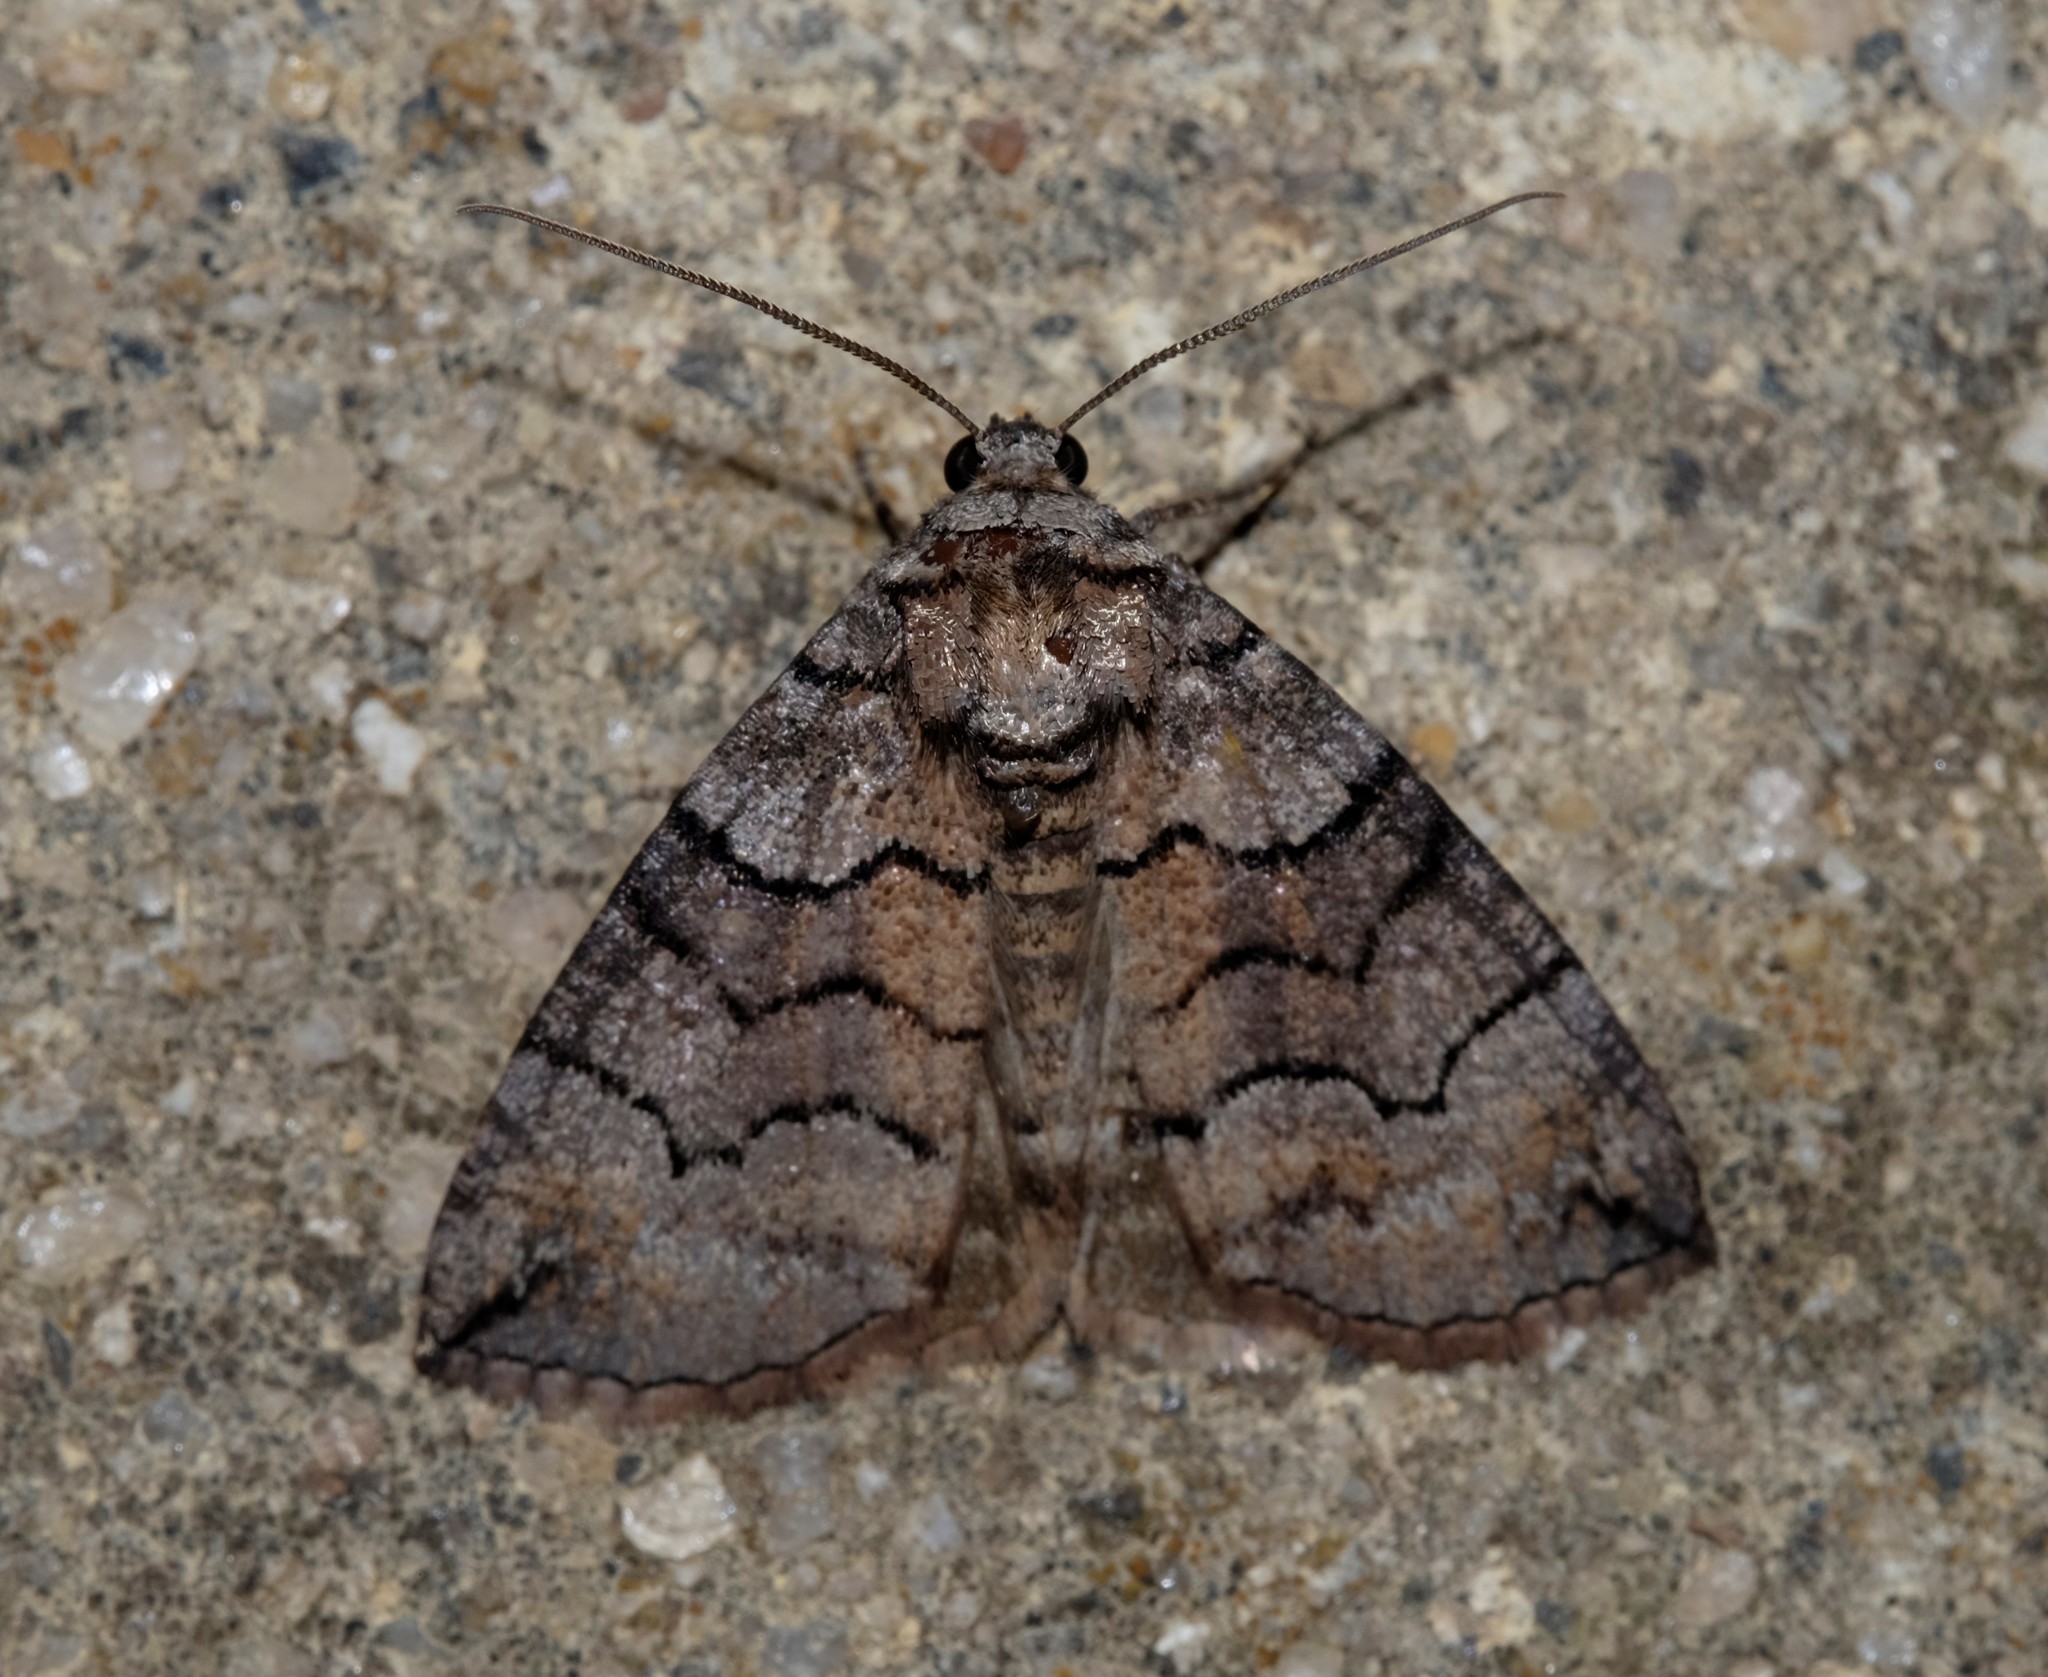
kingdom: Animalia
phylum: Arthropoda
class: Insecta
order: Lepidoptera
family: Geometridae
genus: Dysbatus
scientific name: Dysbatus
